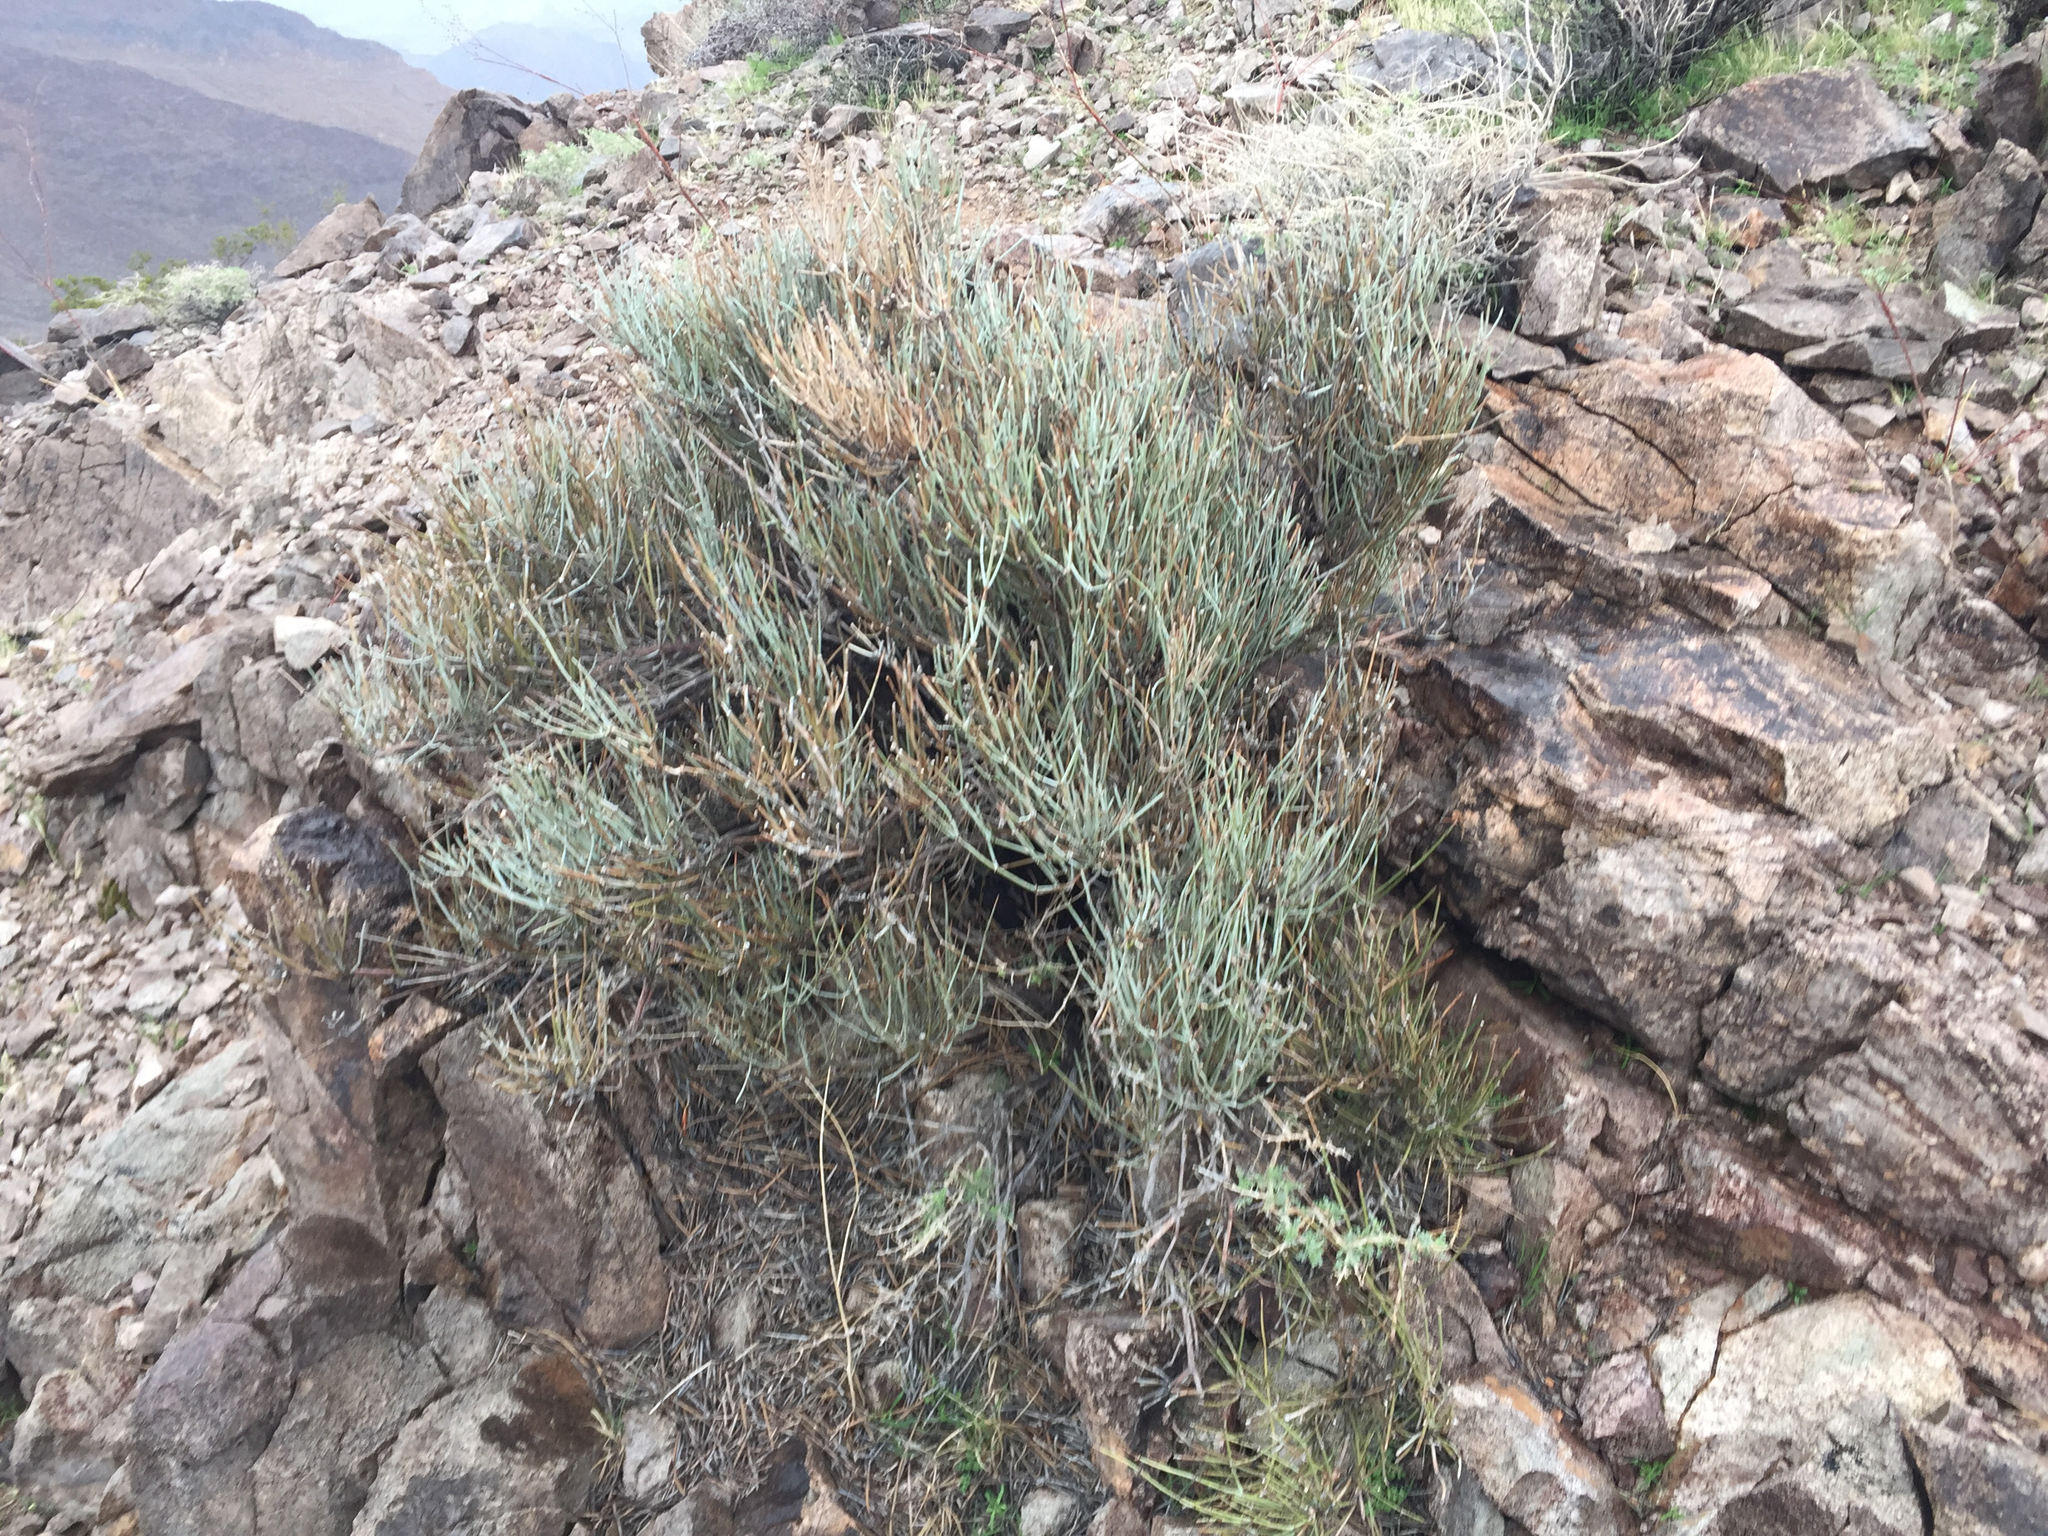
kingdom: Plantae
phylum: Tracheophyta
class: Gnetopsida
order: Ephedrales
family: Ephedraceae
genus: Ephedra
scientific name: Ephedra viridis
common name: Green ephedra
